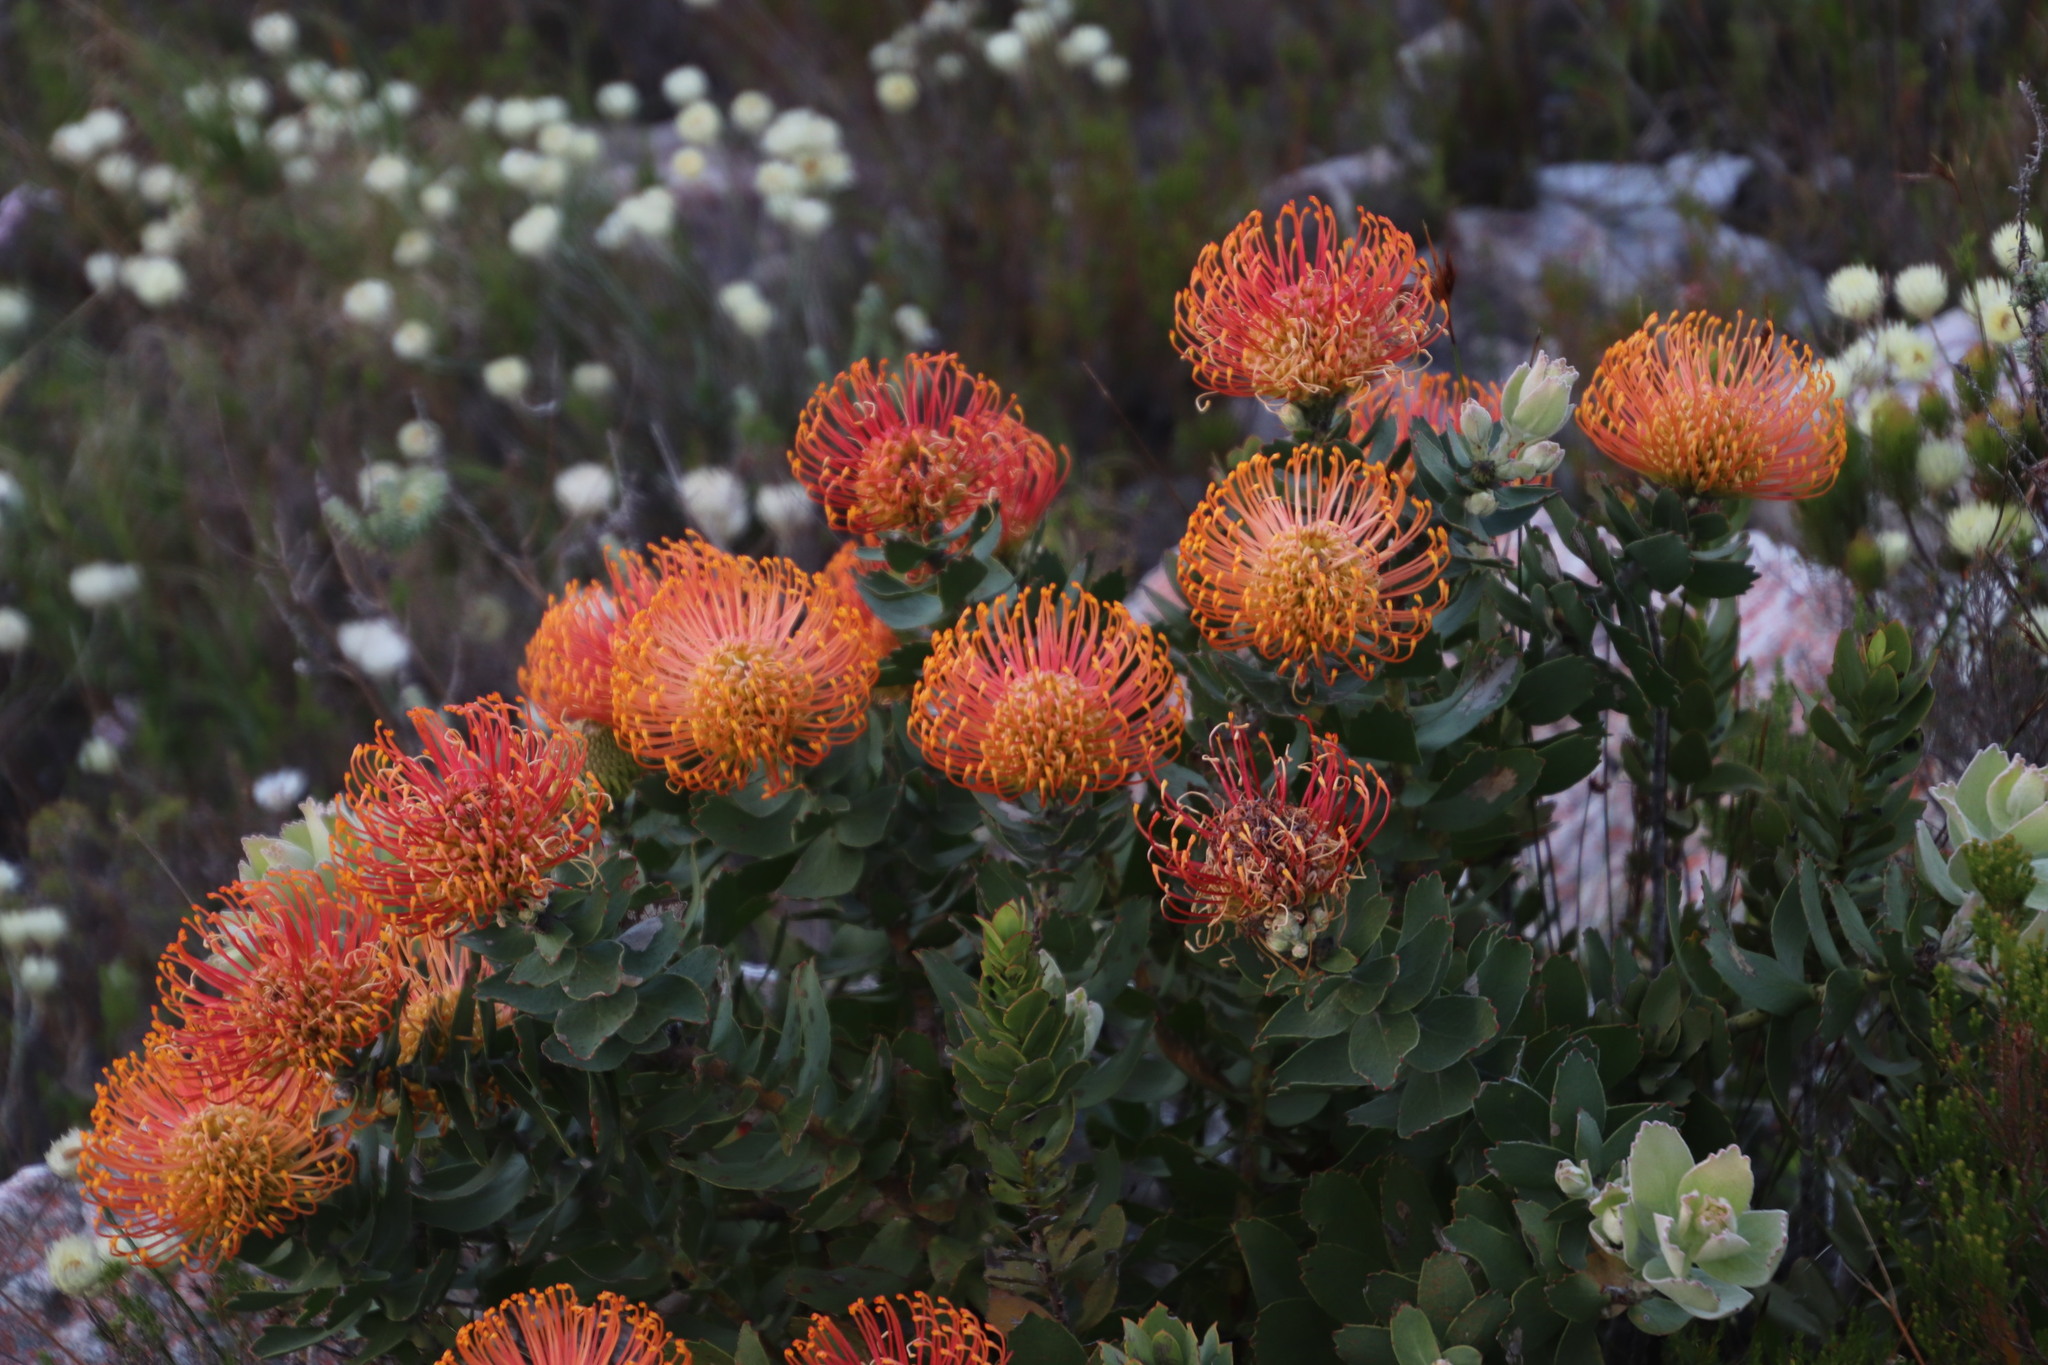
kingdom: Plantae
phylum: Tracheophyta
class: Magnoliopsida
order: Proteales
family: Proteaceae
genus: Leucospermum
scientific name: Leucospermum patersonii
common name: False tree pincushion
